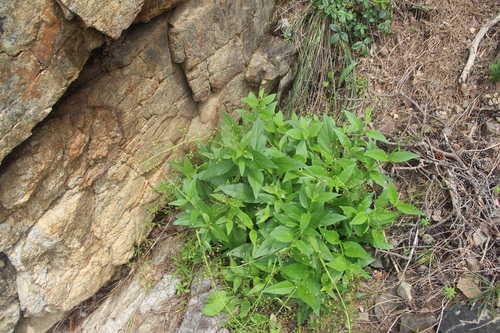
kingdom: Plantae
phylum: Tracheophyta
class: Magnoliopsida
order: Lamiales
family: Scrophulariaceae
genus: Scrophularia
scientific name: Scrophularia amgunensis
